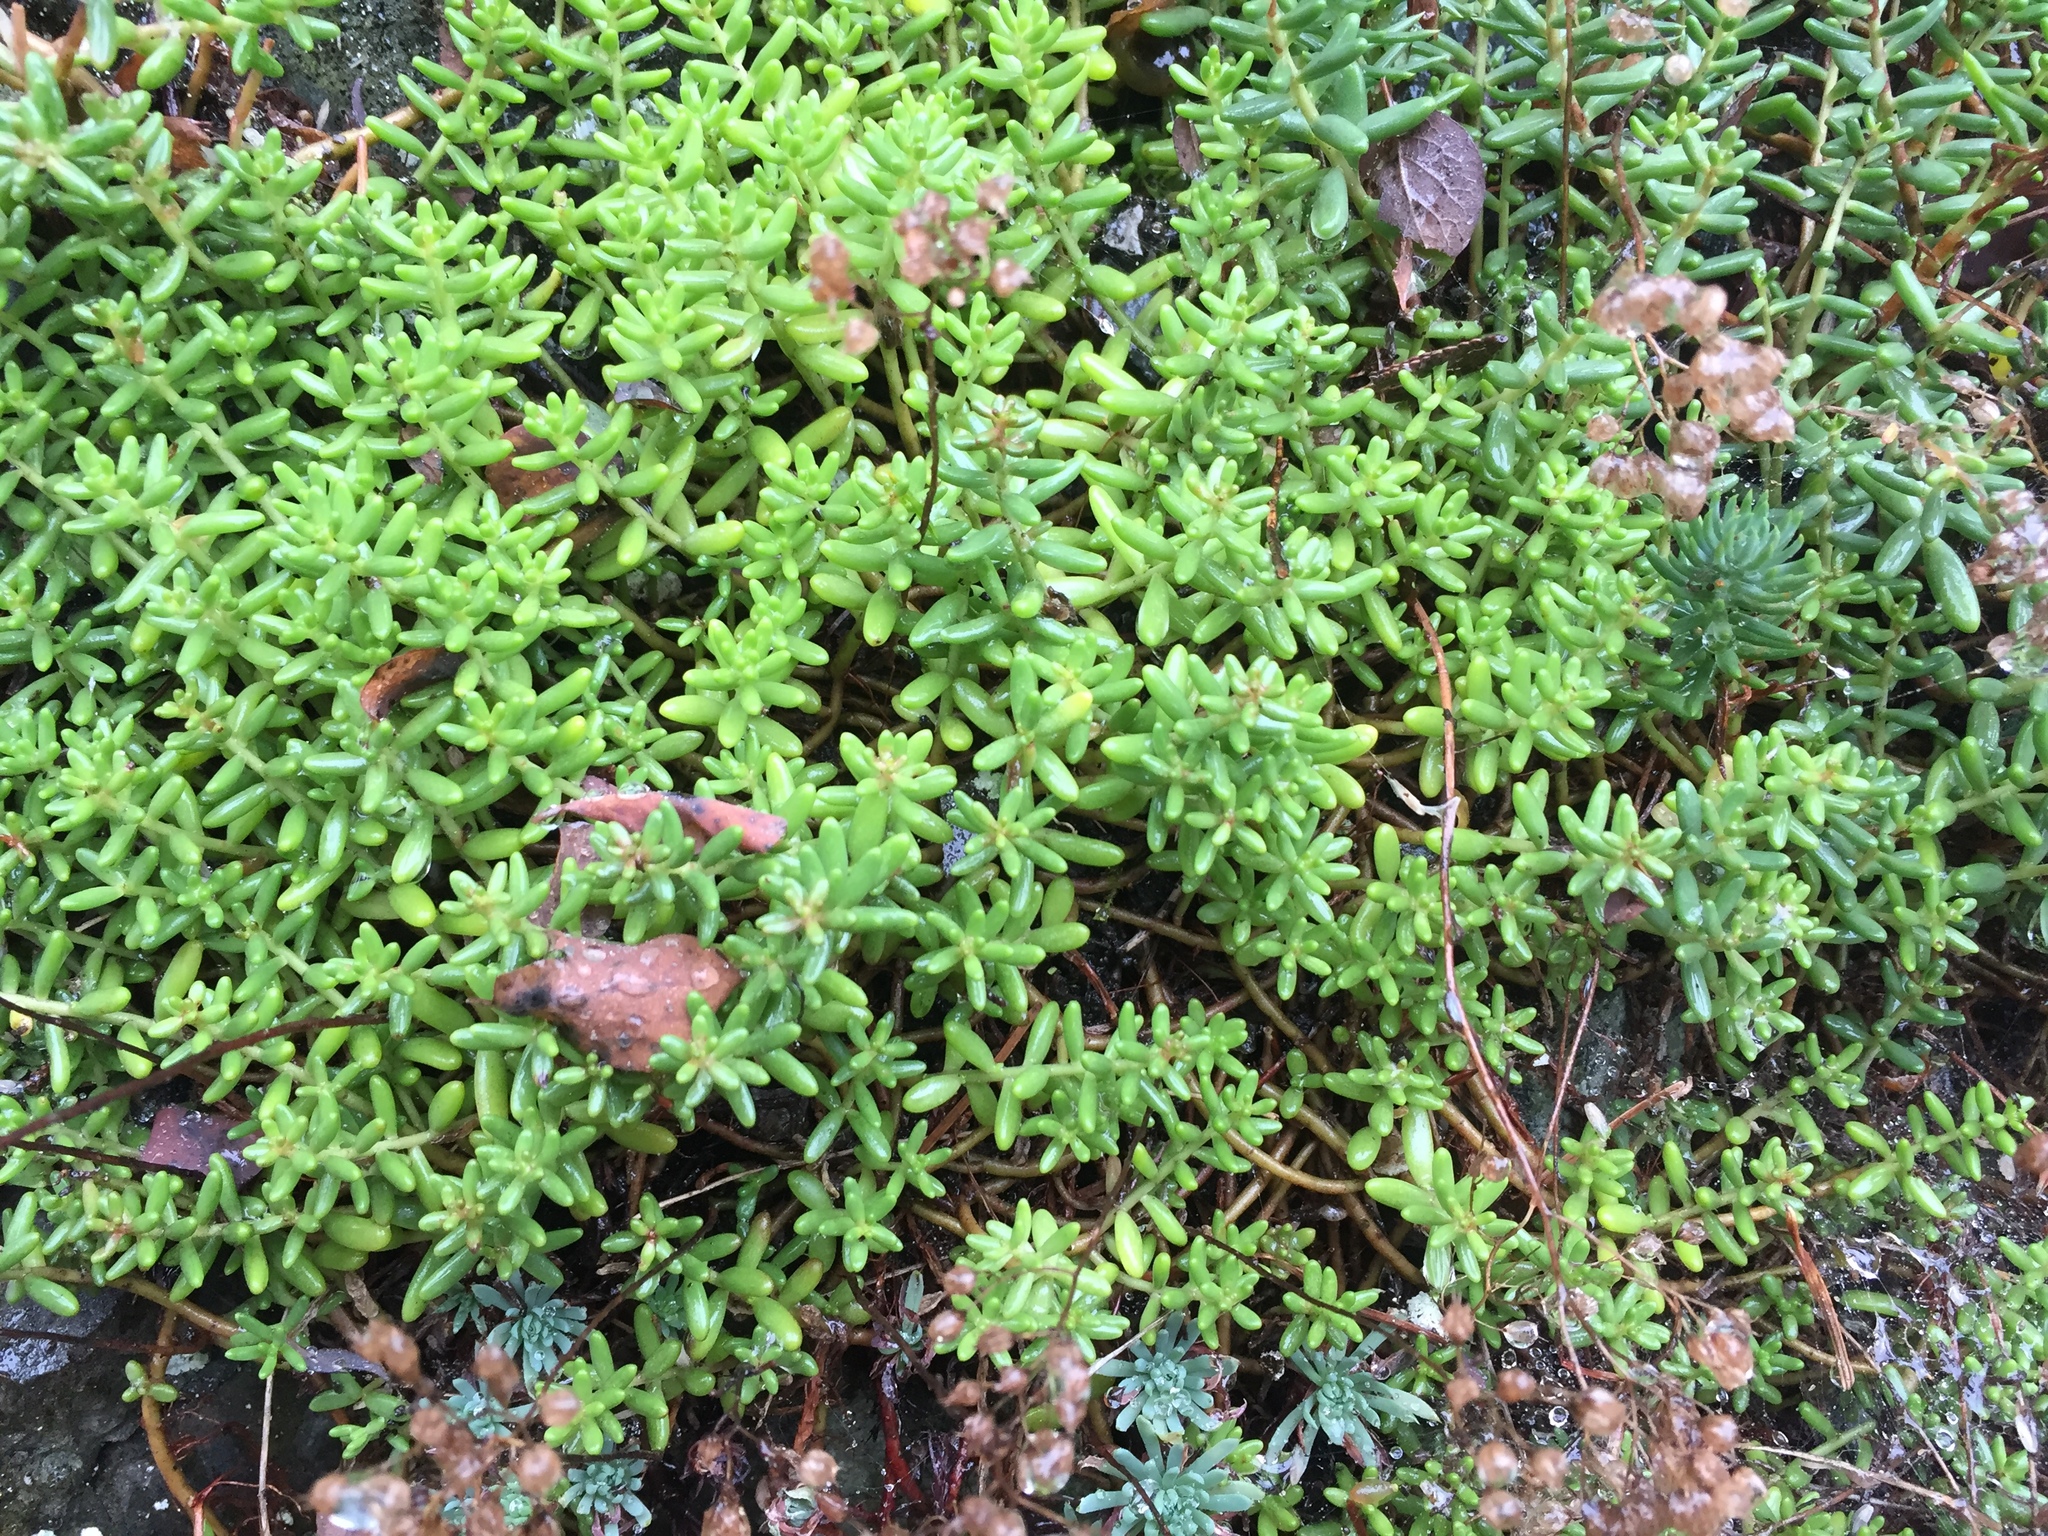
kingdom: Plantae
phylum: Tracheophyta
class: Magnoliopsida
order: Saxifragales
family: Crassulaceae
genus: Sedum
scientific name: Sedum album
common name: White stonecrop
